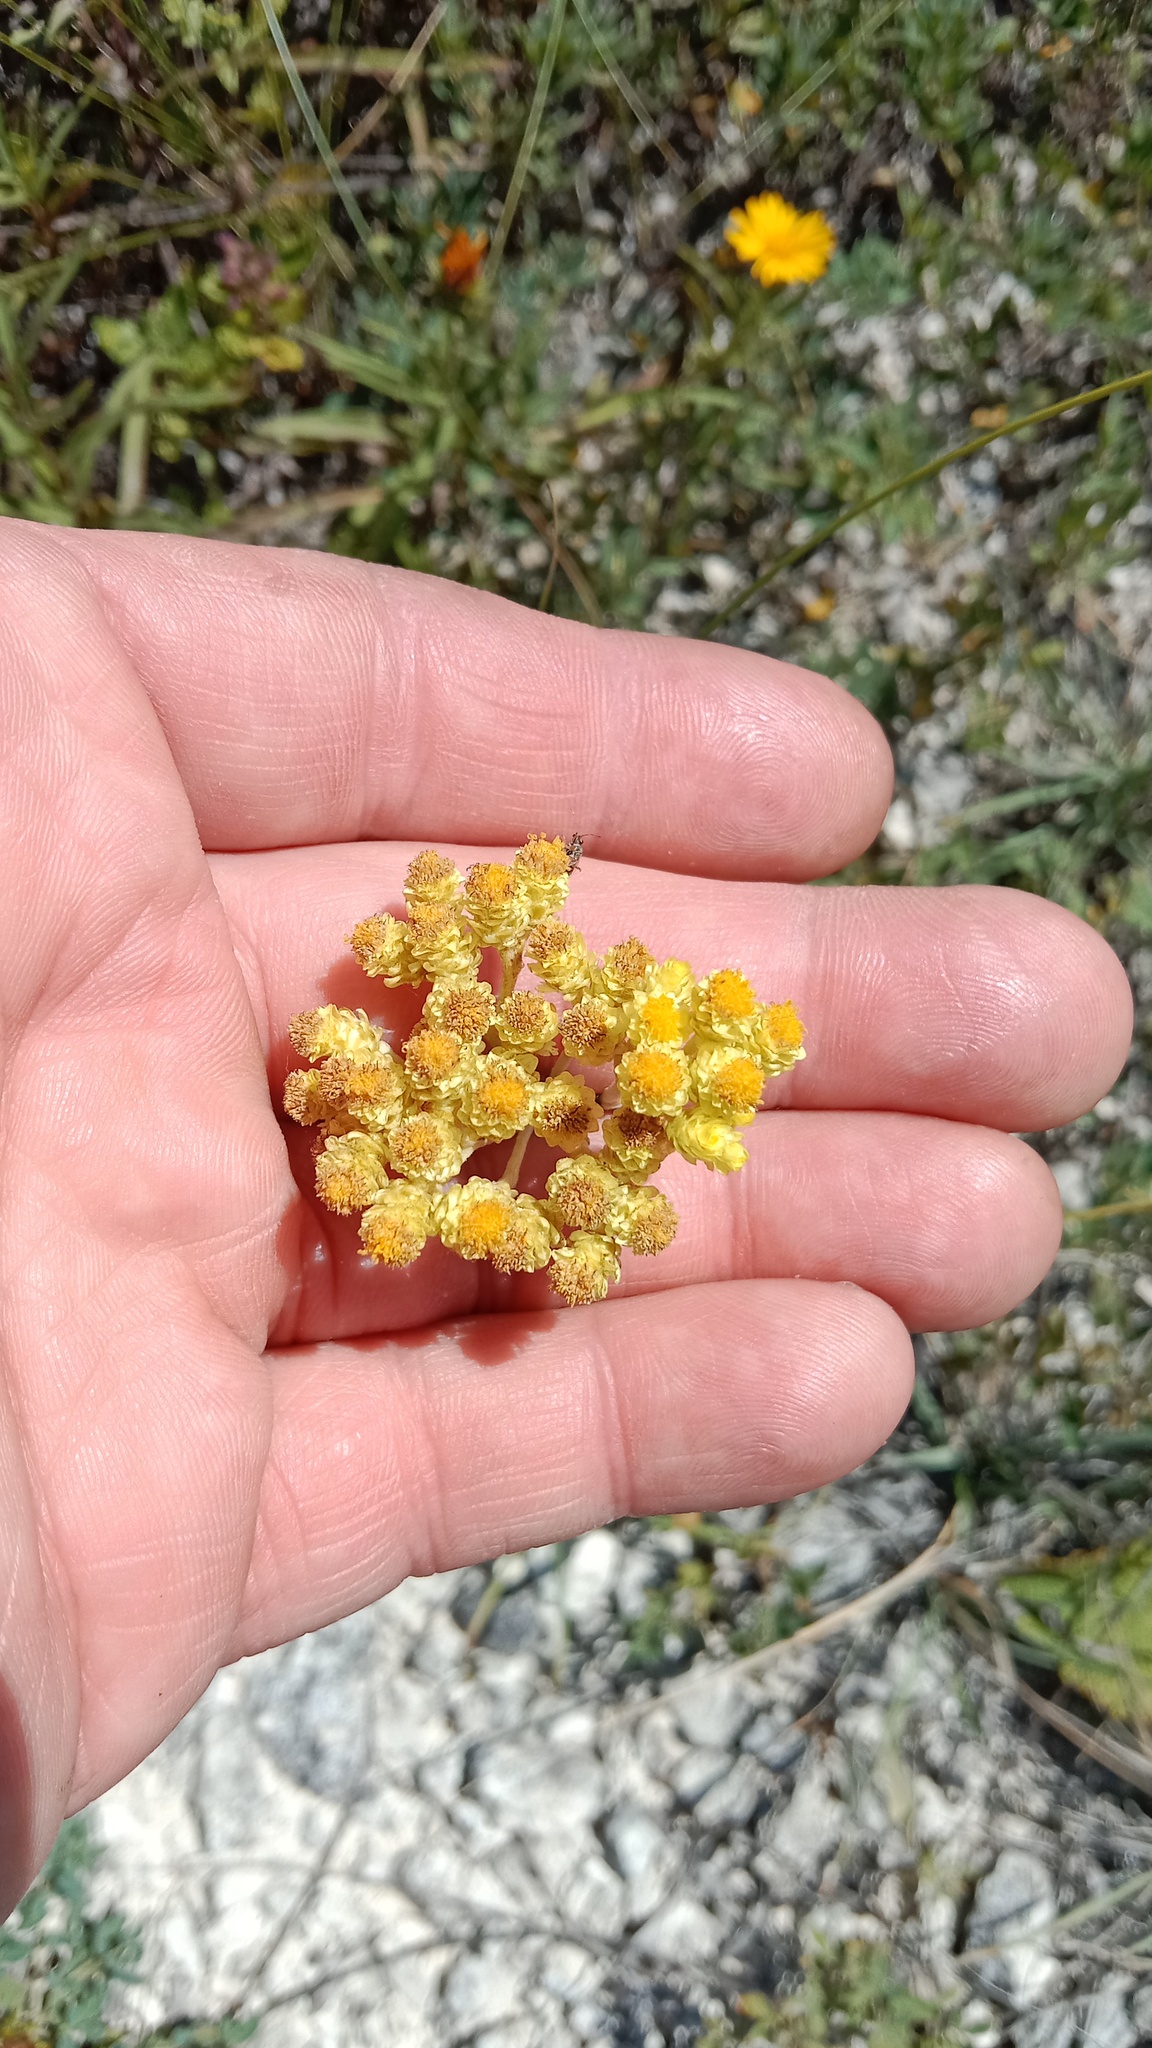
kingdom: Plantae
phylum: Tracheophyta
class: Magnoliopsida
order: Asterales
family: Asteraceae
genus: Helichrysum
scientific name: Helichrysum arenarium
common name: Strawflower
